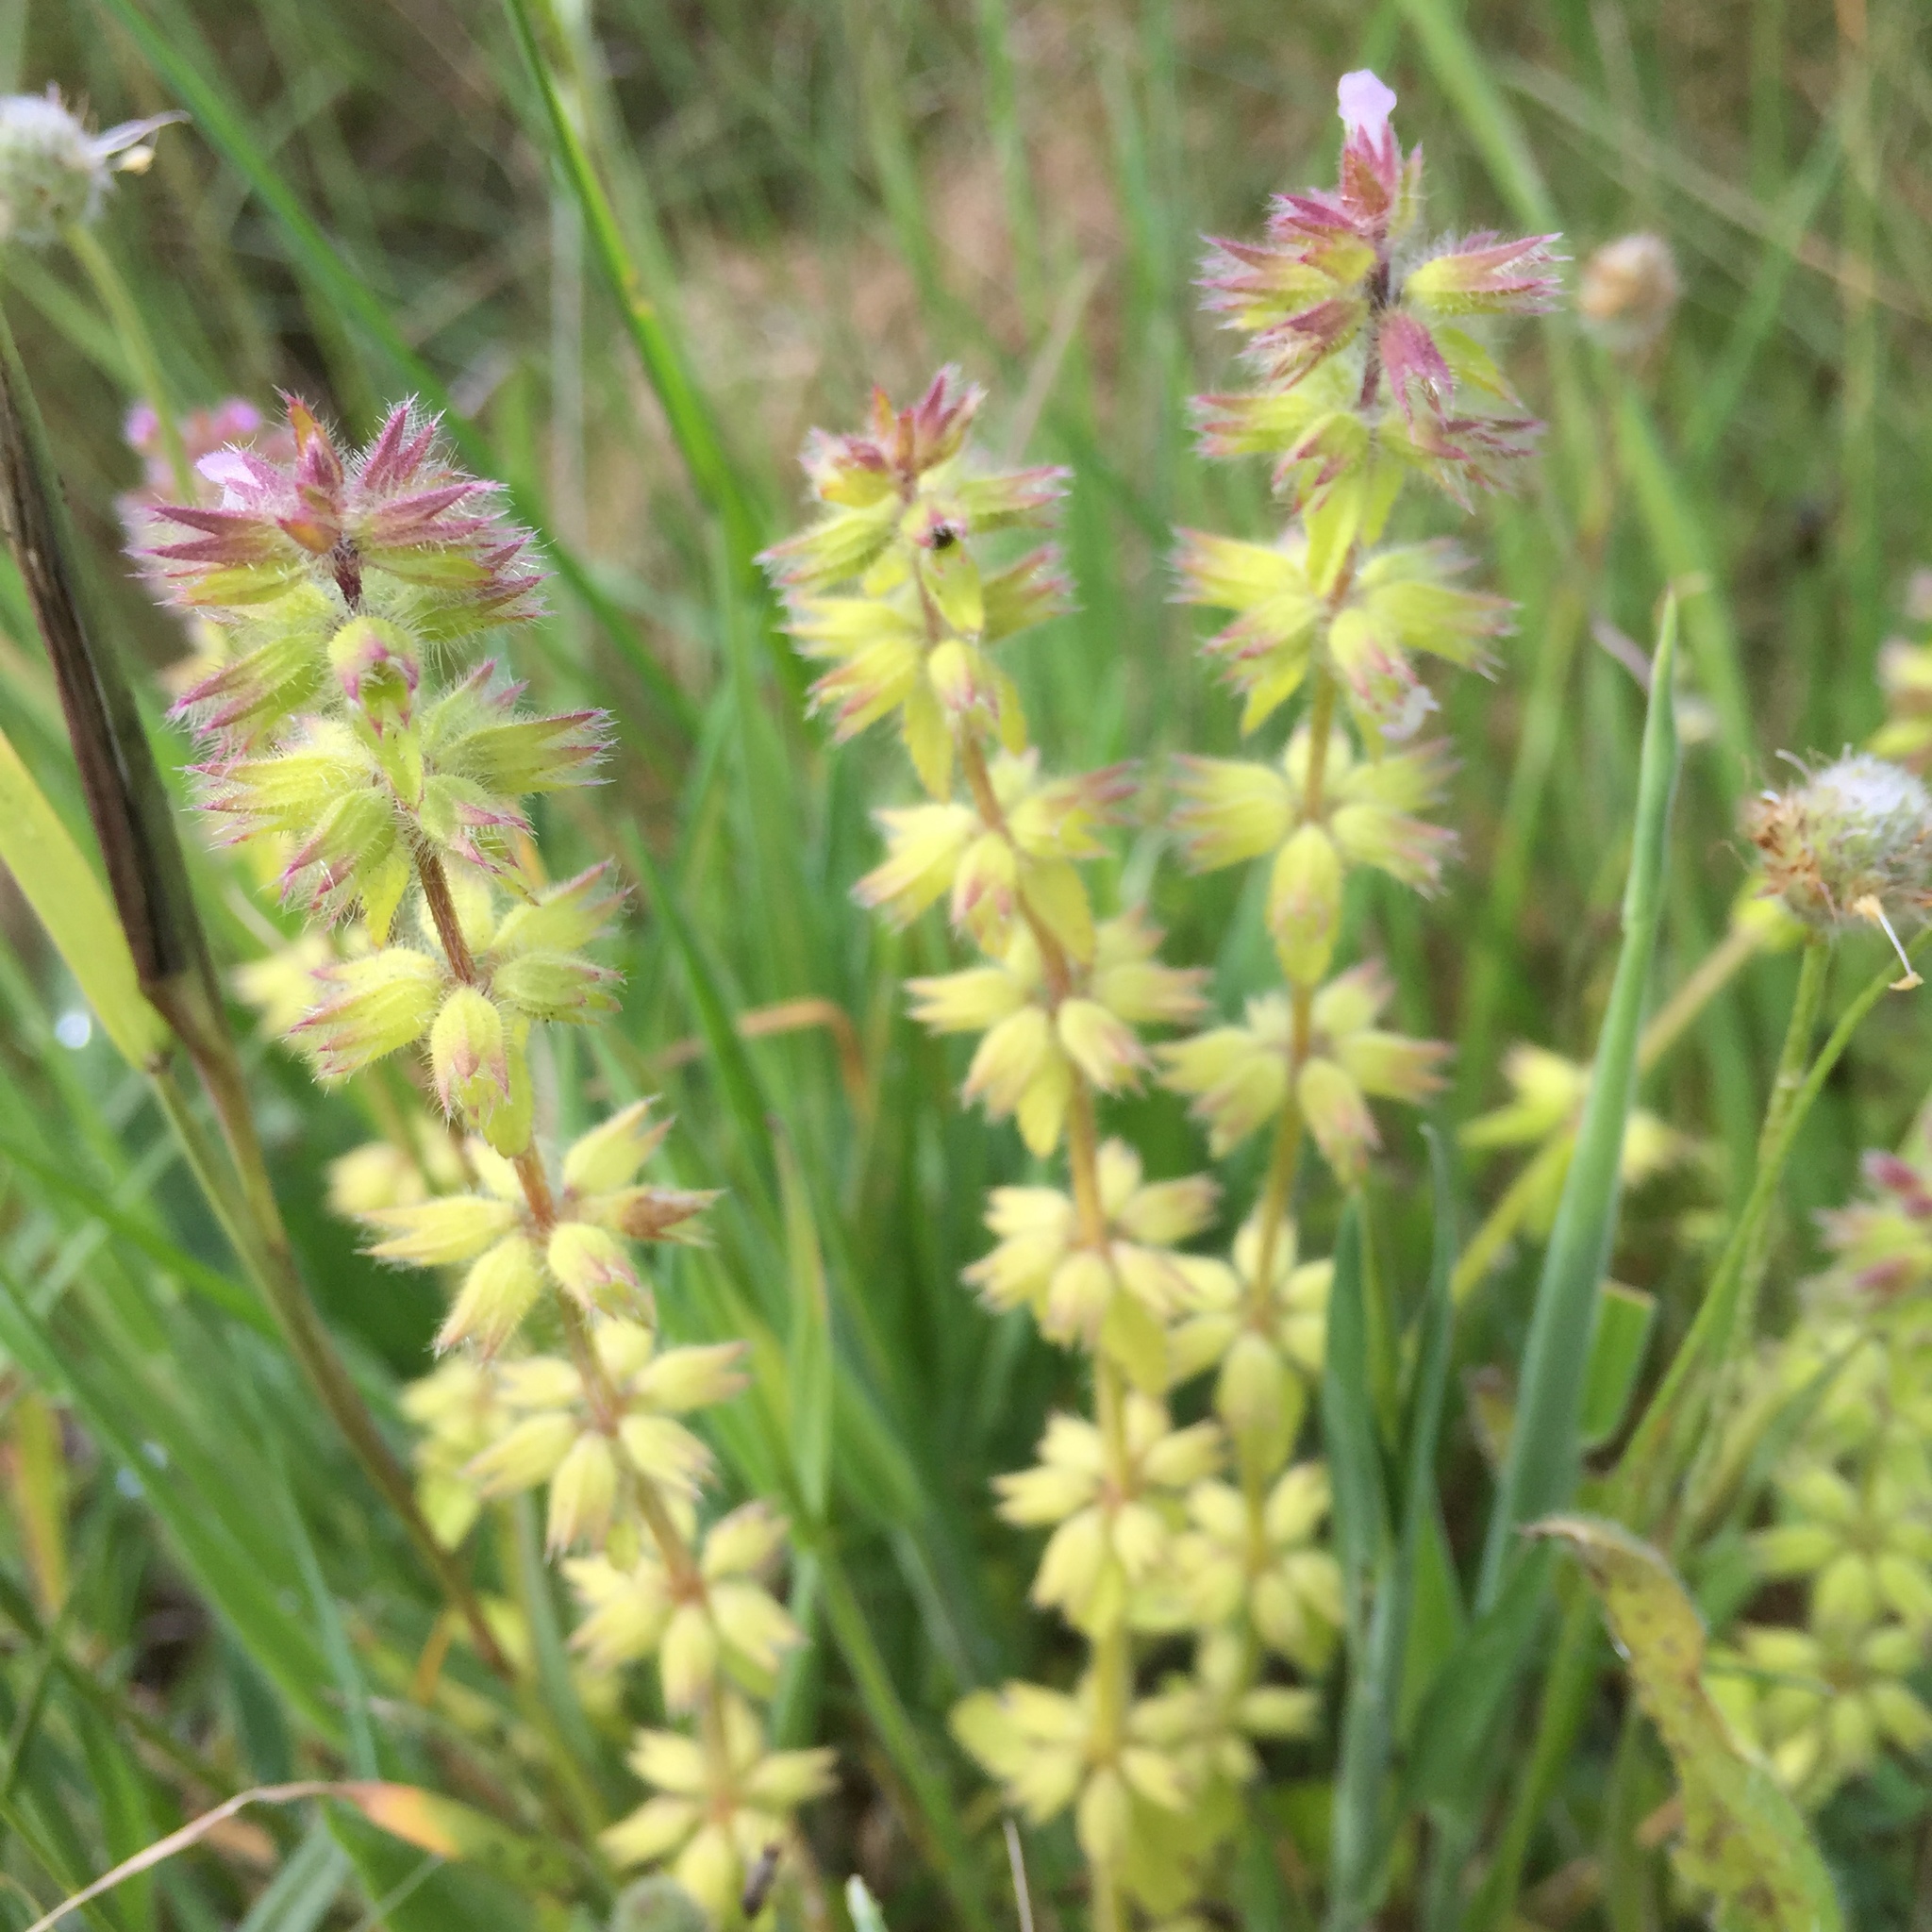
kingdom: Plantae
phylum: Tracheophyta
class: Magnoliopsida
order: Lamiales
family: Lamiaceae
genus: Stachys
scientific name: Stachys arvensis
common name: Field woundwort
